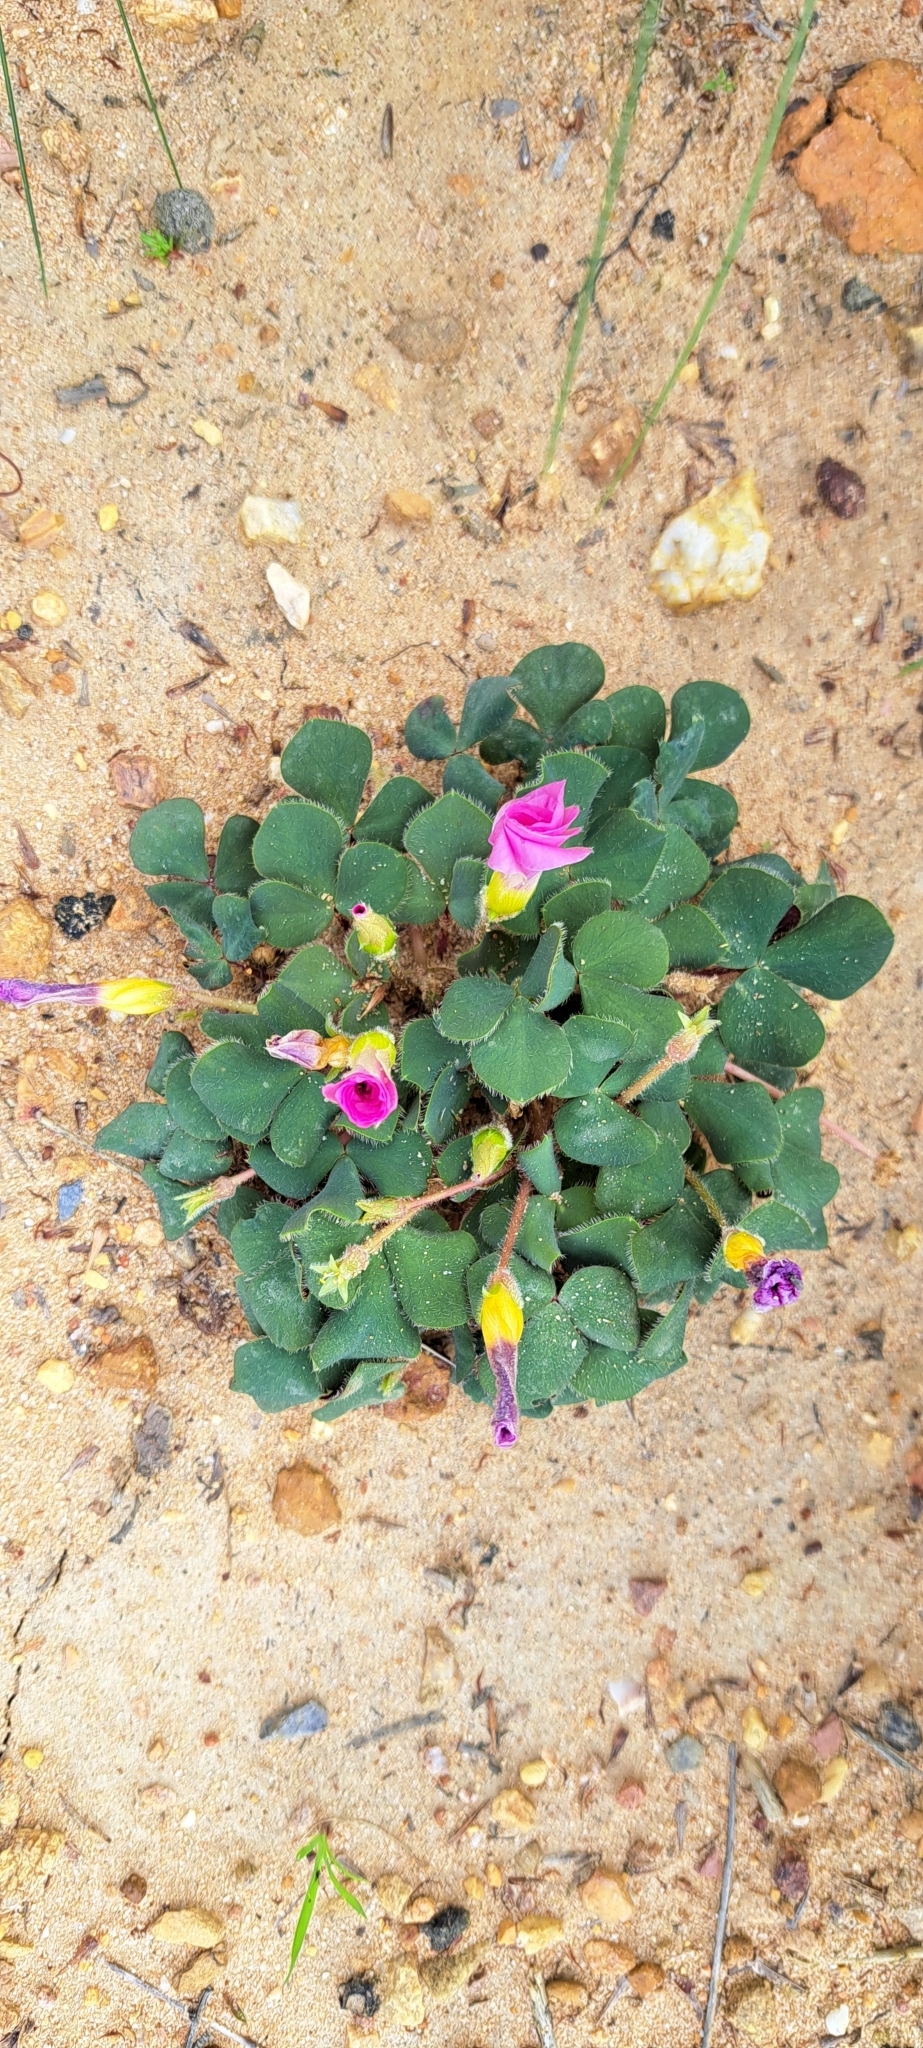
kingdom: Plantae
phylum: Tracheophyta
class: Magnoliopsida
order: Oxalidales
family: Oxalidaceae
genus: Oxalis
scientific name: Oxalis purpurea
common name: Purple woodsorrel
